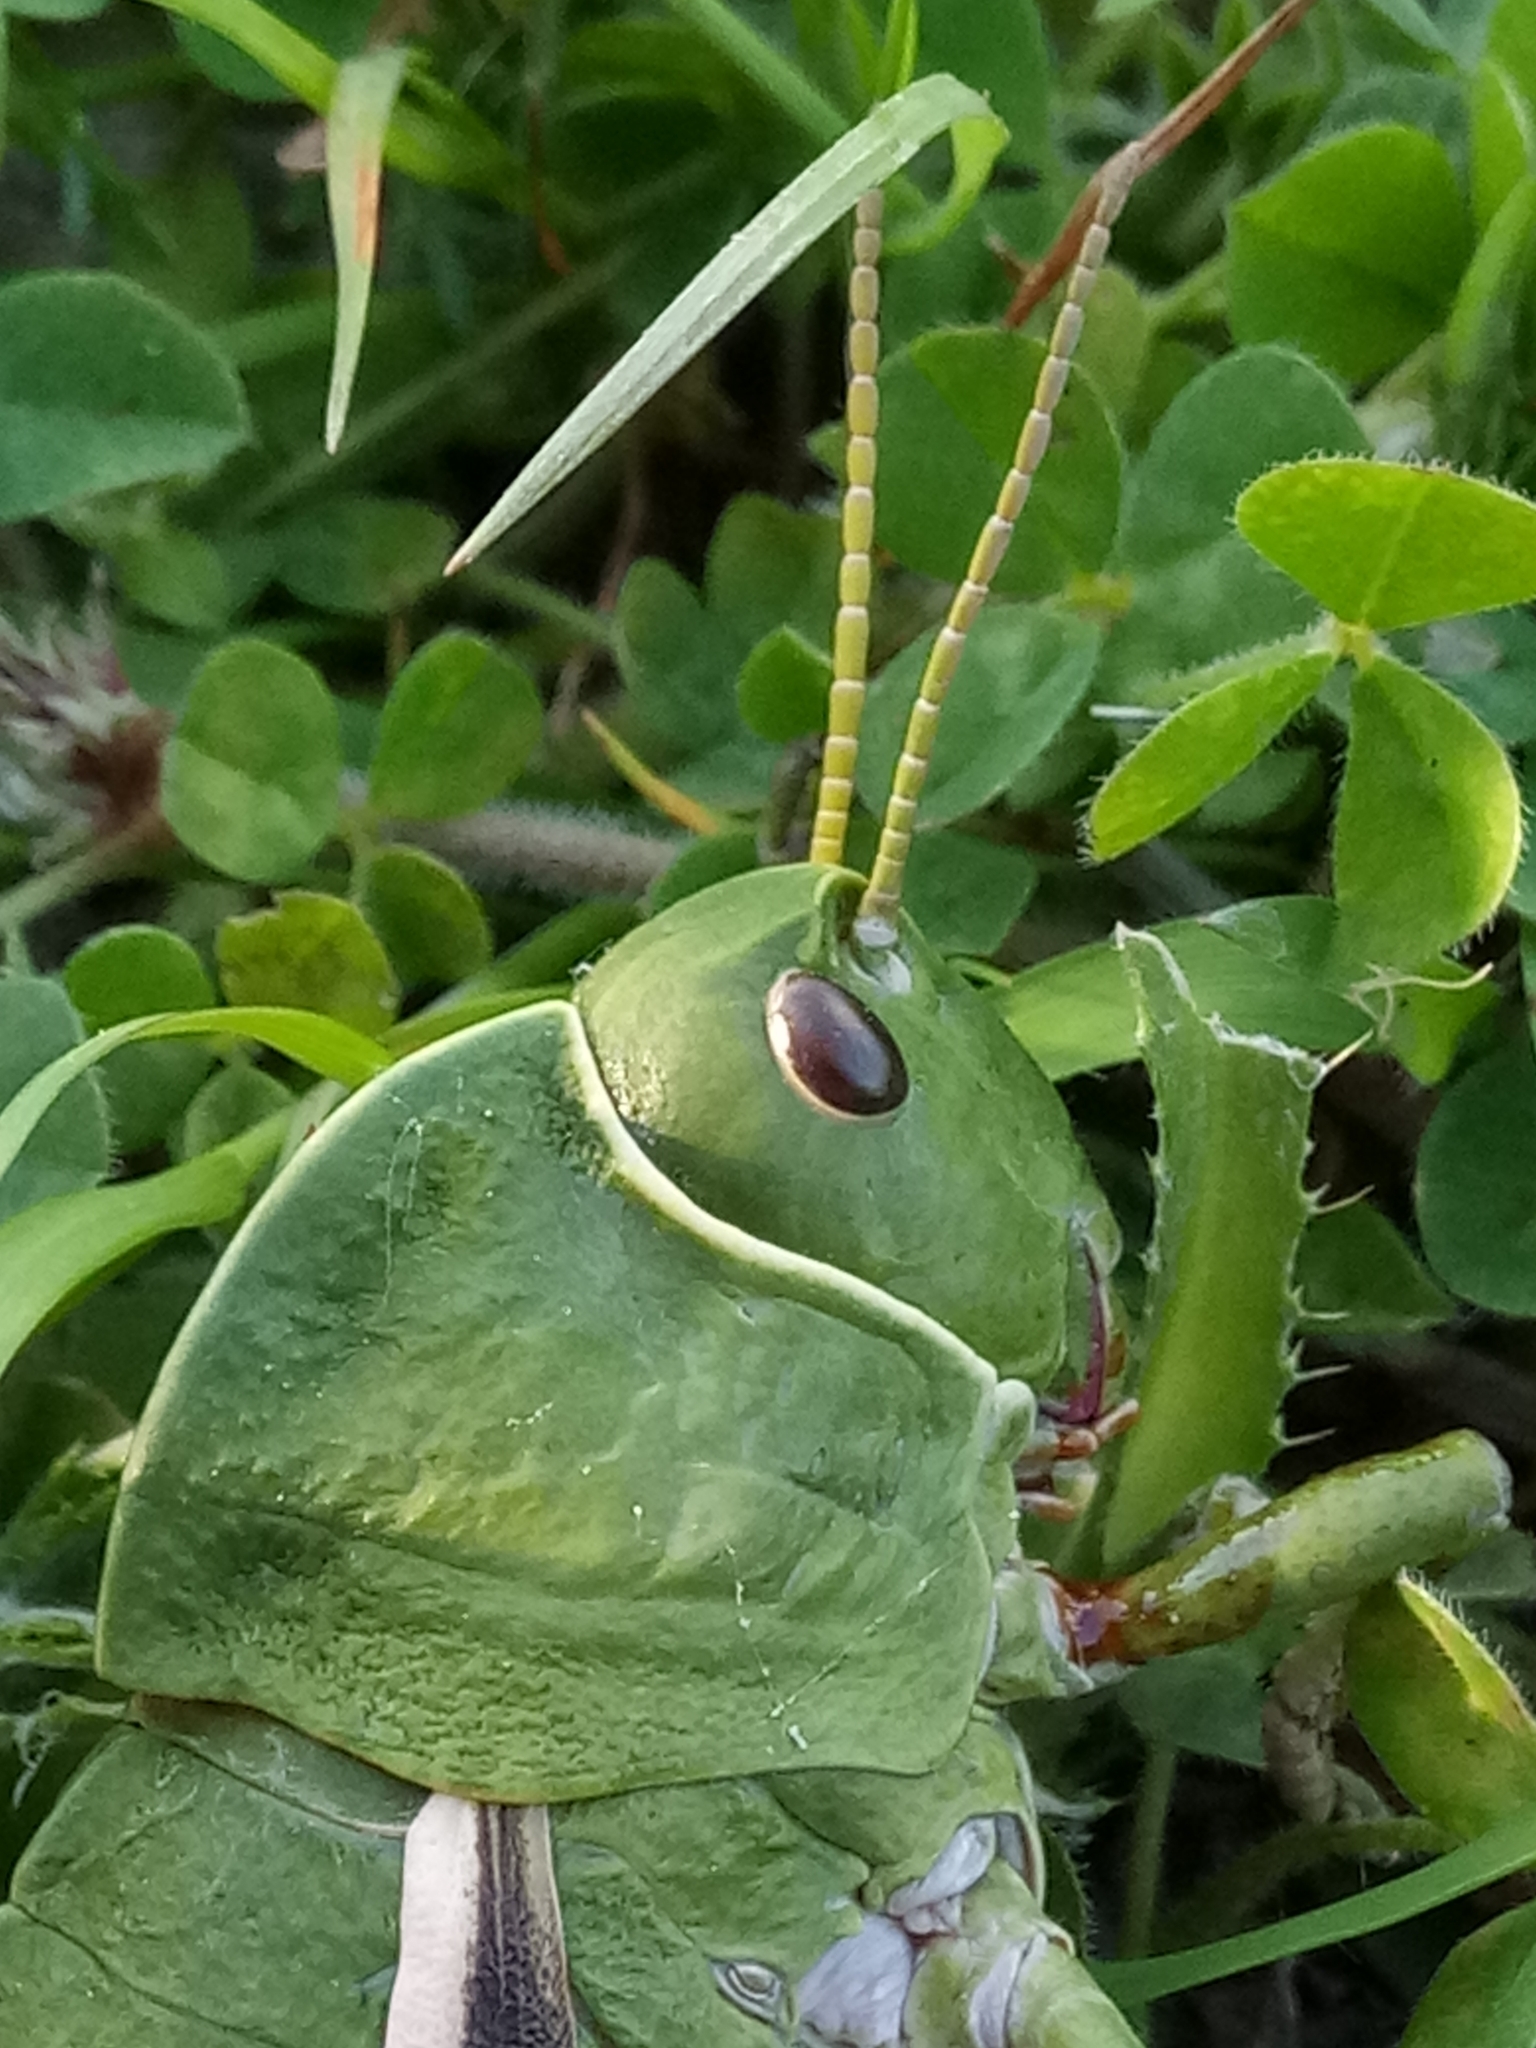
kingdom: Animalia
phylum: Arthropoda
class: Insecta
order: Orthoptera
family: Pamphagidae
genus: Pamphagus
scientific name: Pamphagus milevitanus
